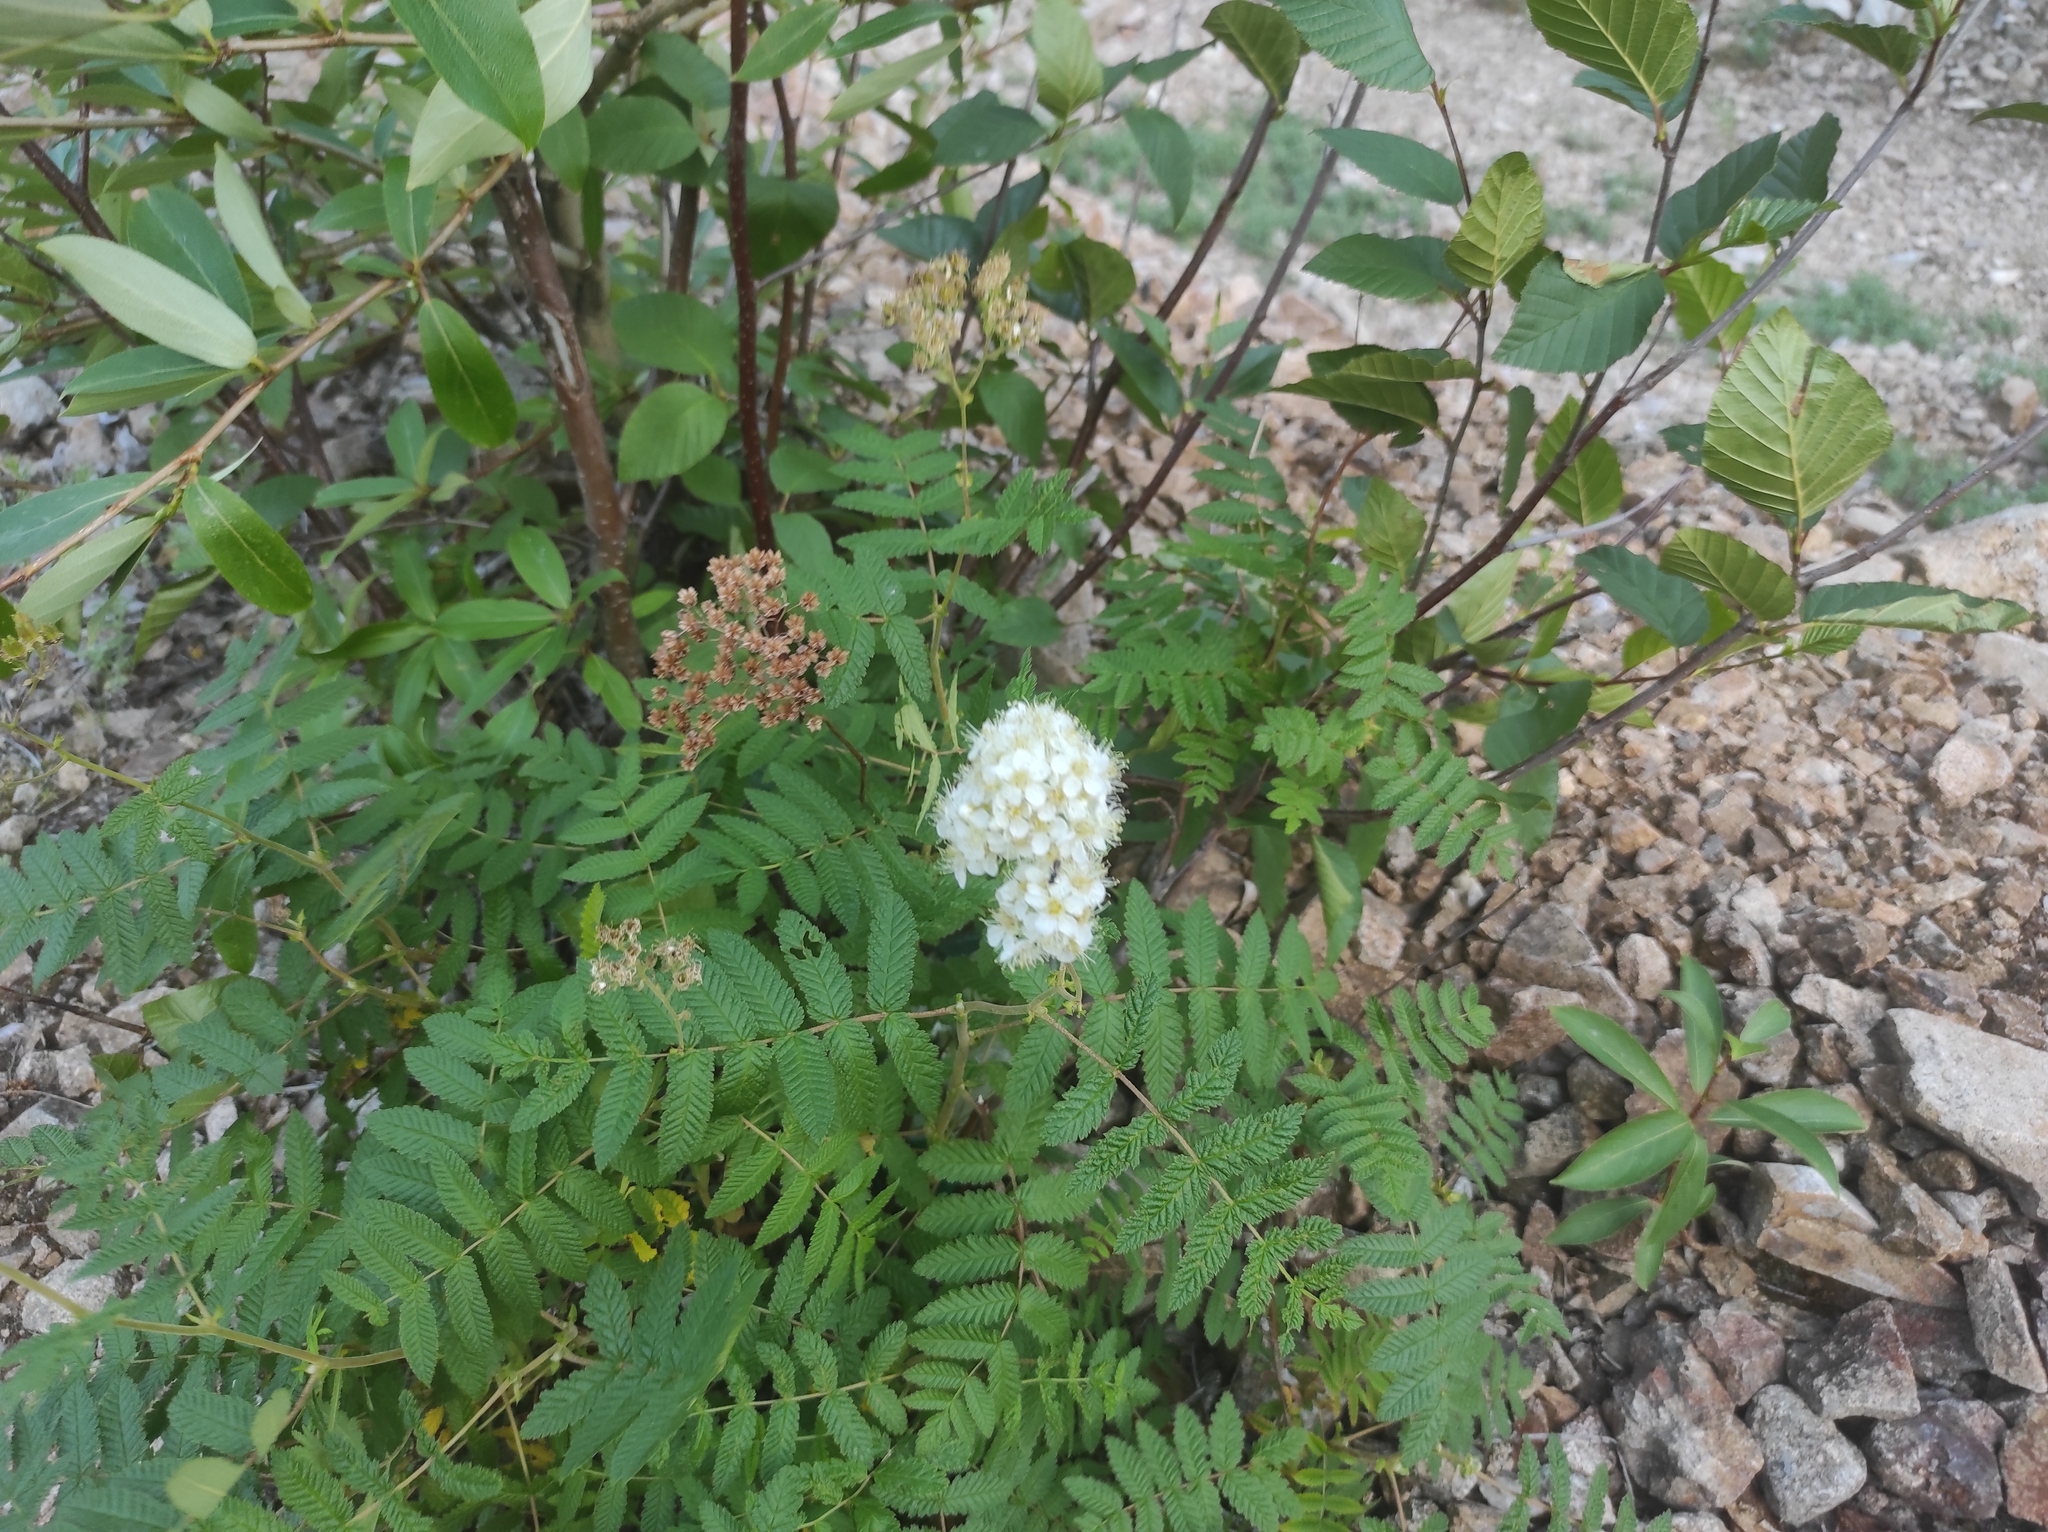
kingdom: Plantae
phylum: Tracheophyta
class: Magnoliopsida
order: Rosales
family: Rosaceae
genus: Sorbaria
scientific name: Sorbaria pallasii
